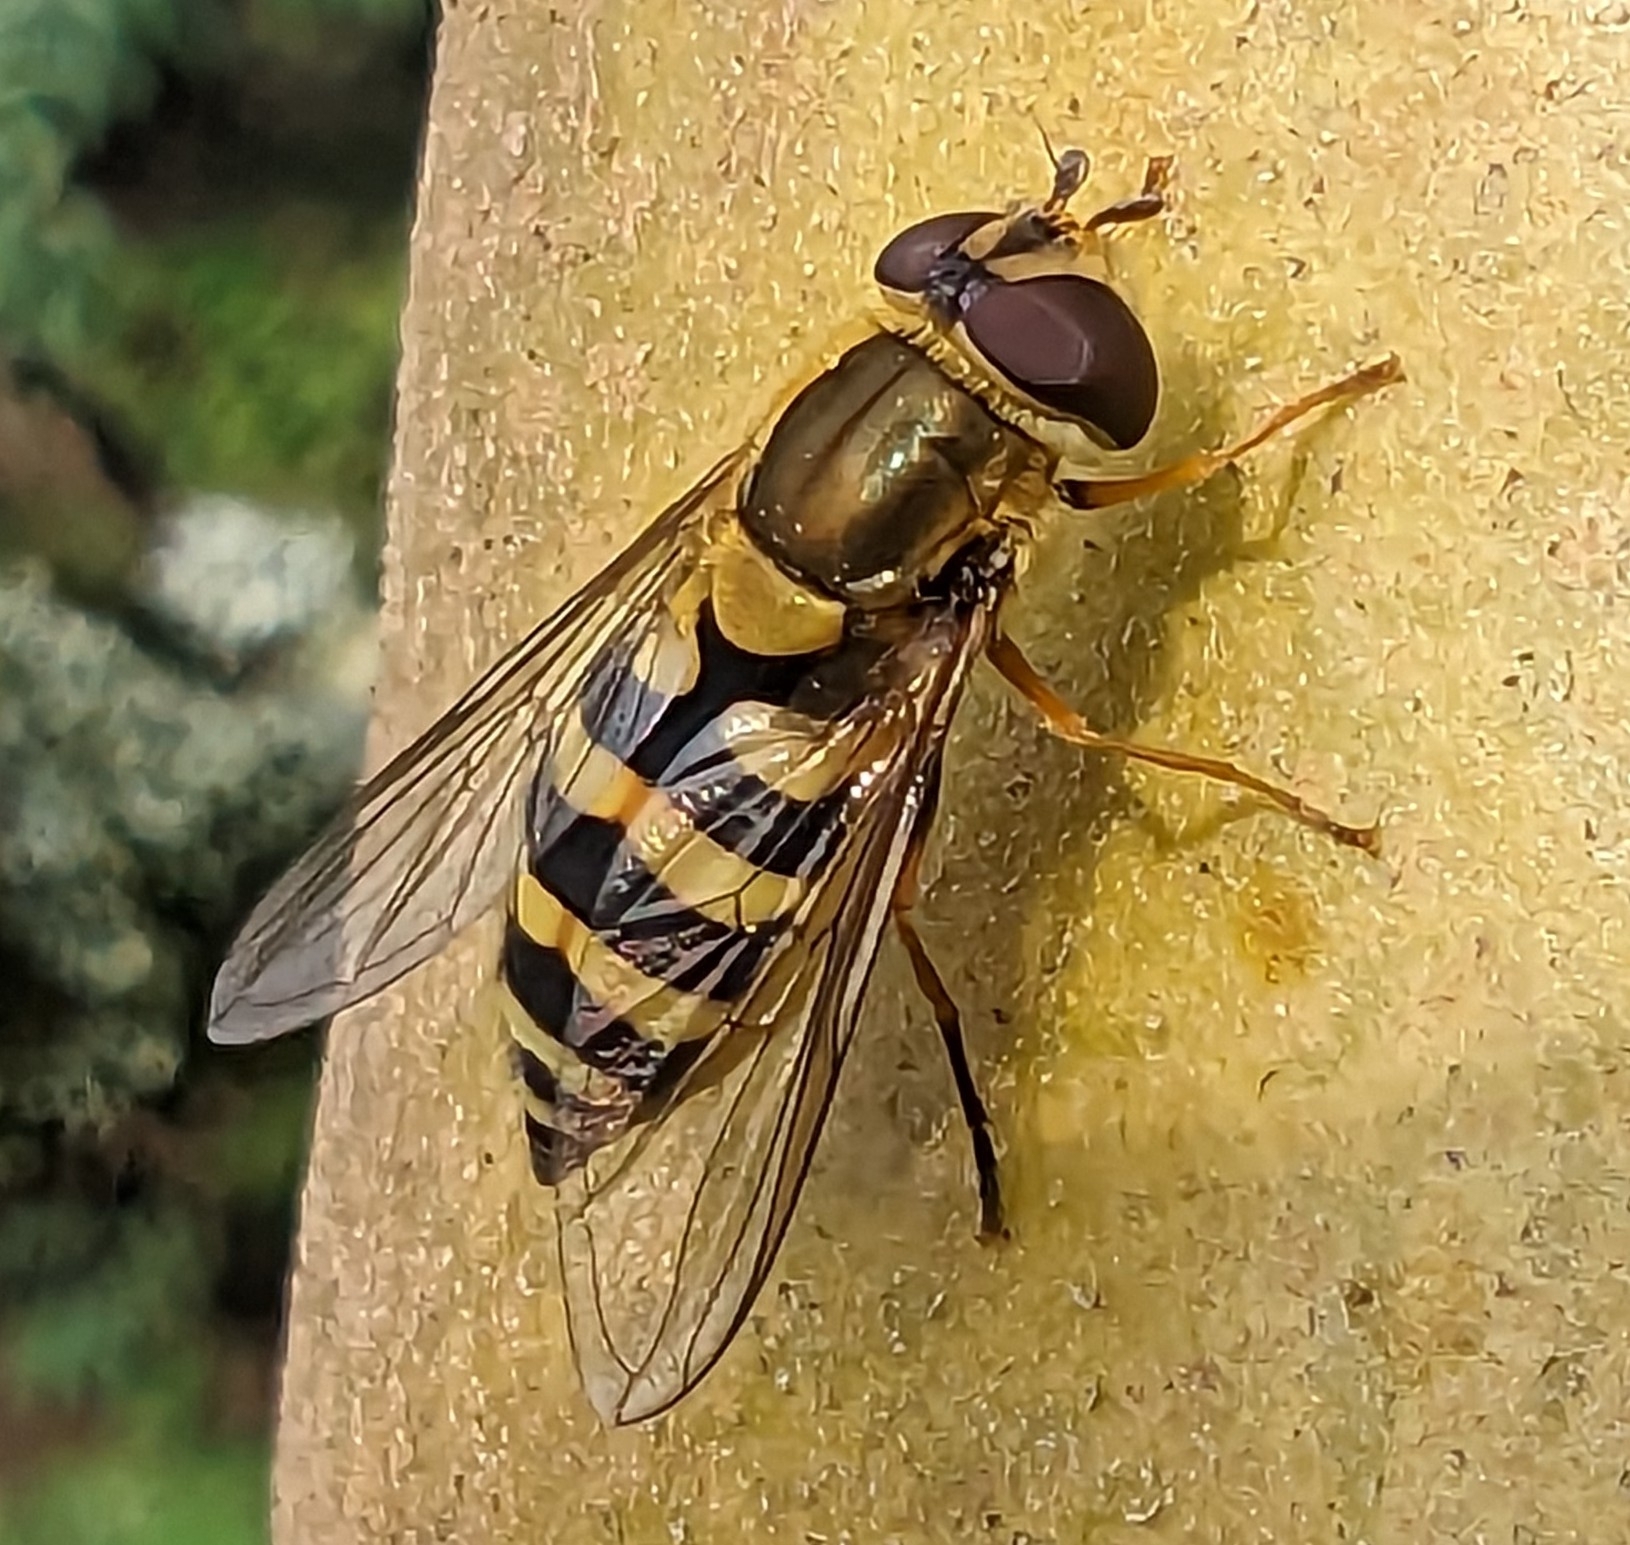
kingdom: Animalia
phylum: Arthropoda
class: Insecta
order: Diptera
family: Syrphidae
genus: Syrphus
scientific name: Syrphus
